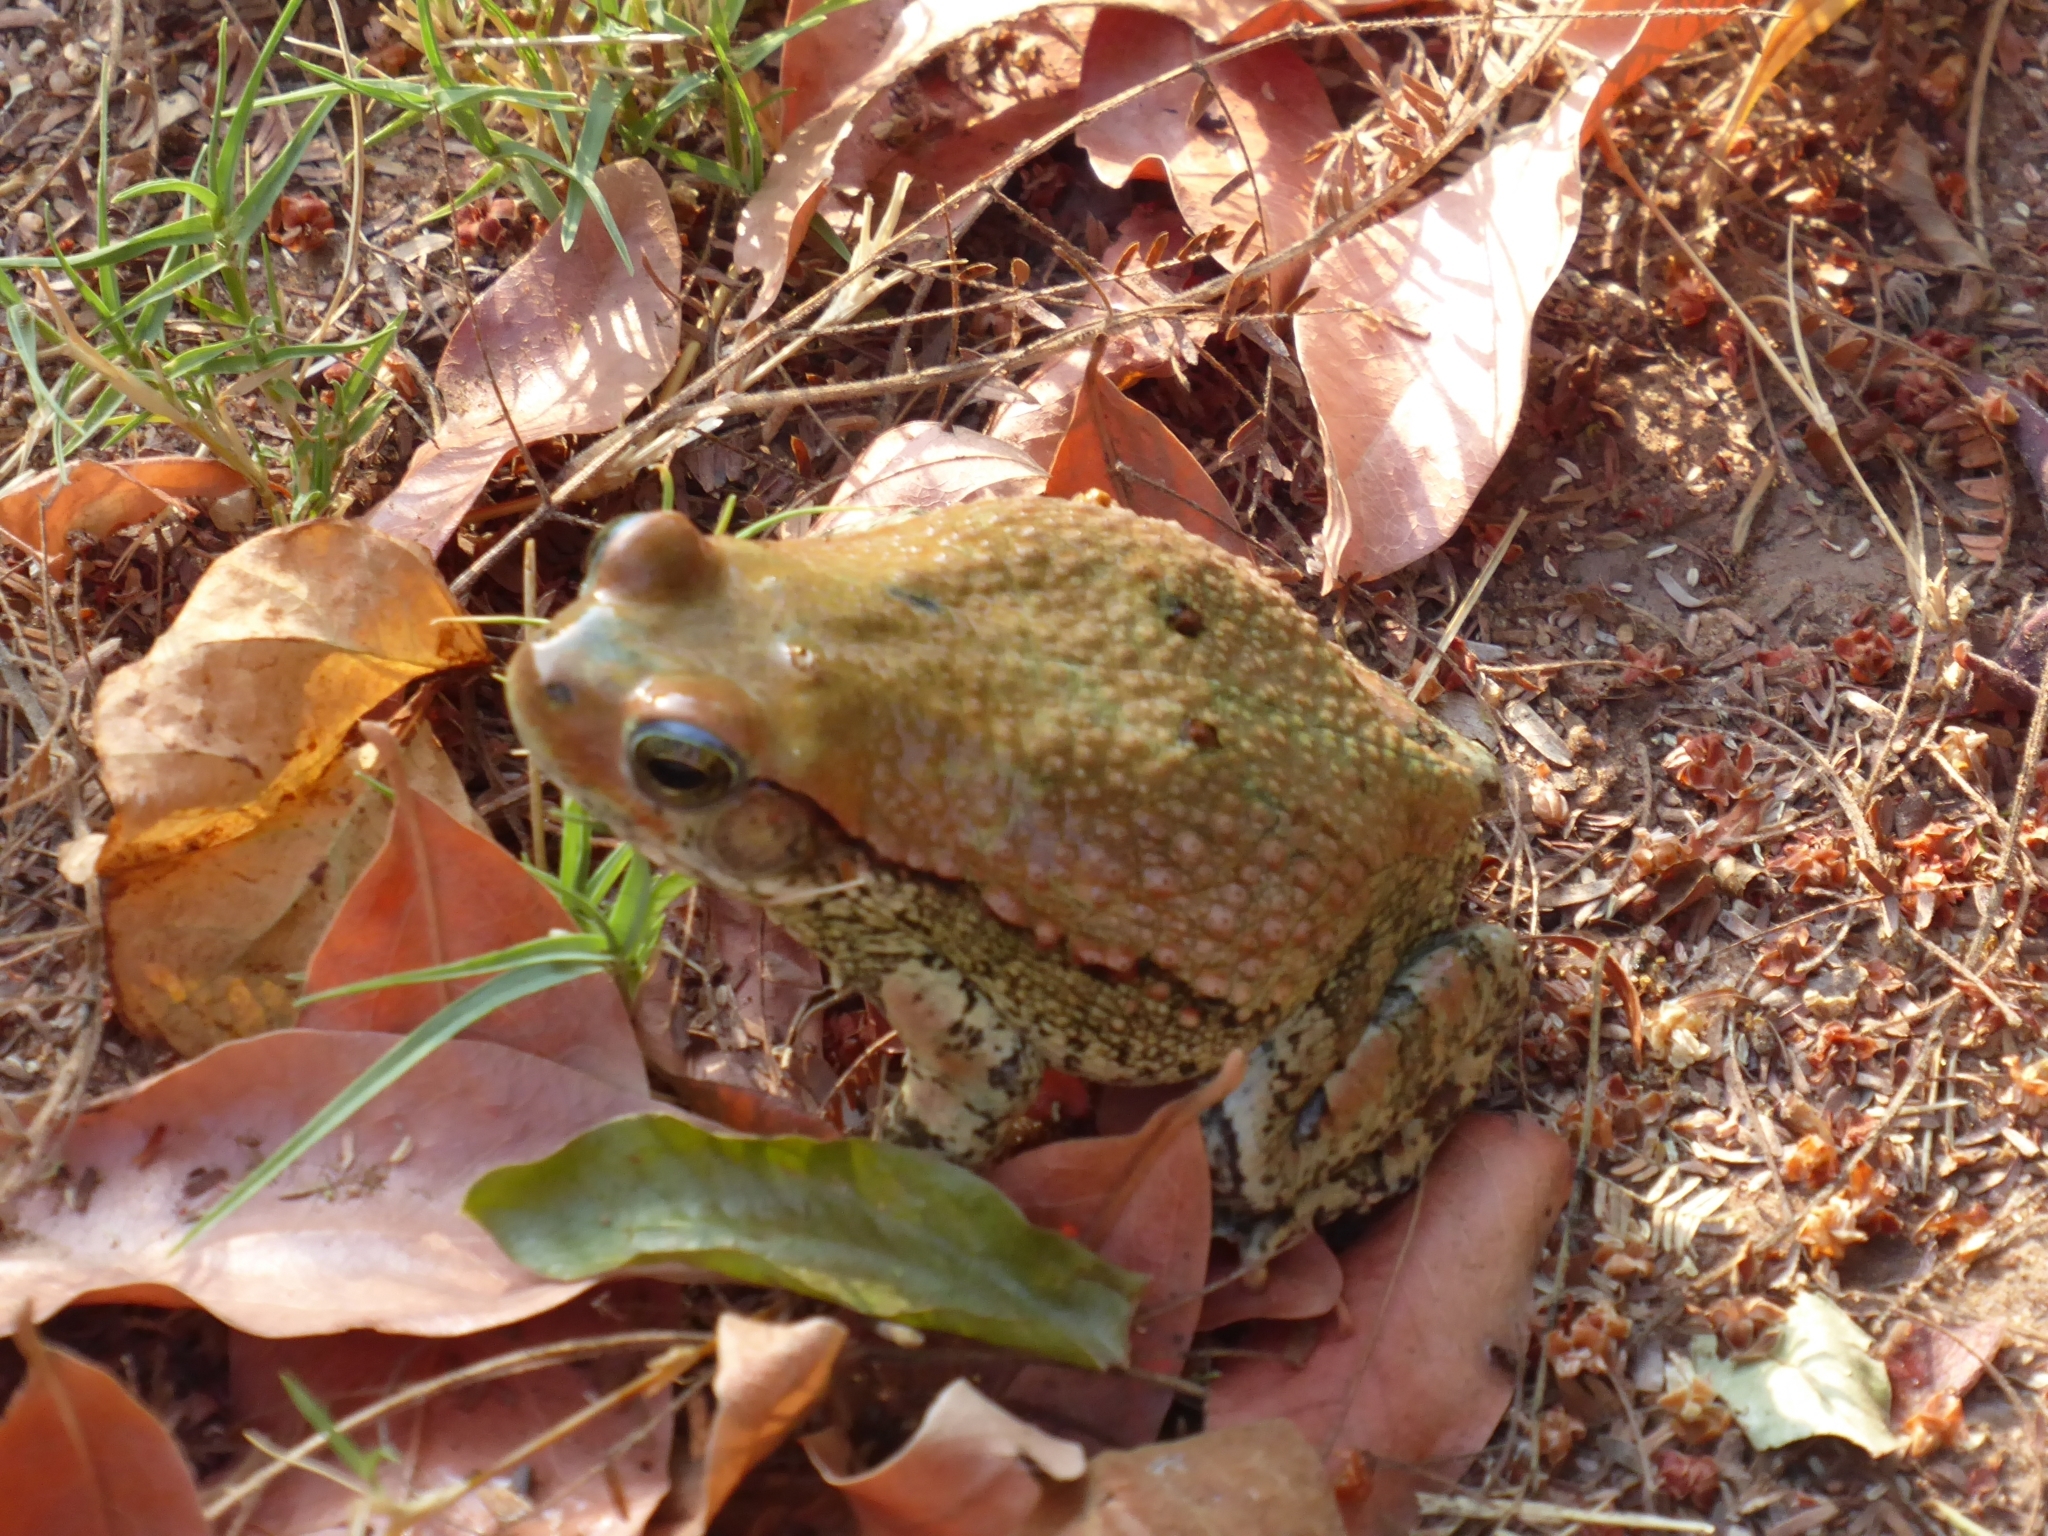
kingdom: Animalia
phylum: Chordata
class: Amphibia
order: Anura
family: Bufonidae
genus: Schismaderma
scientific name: Schismaderma carens
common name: African split-skin toad
